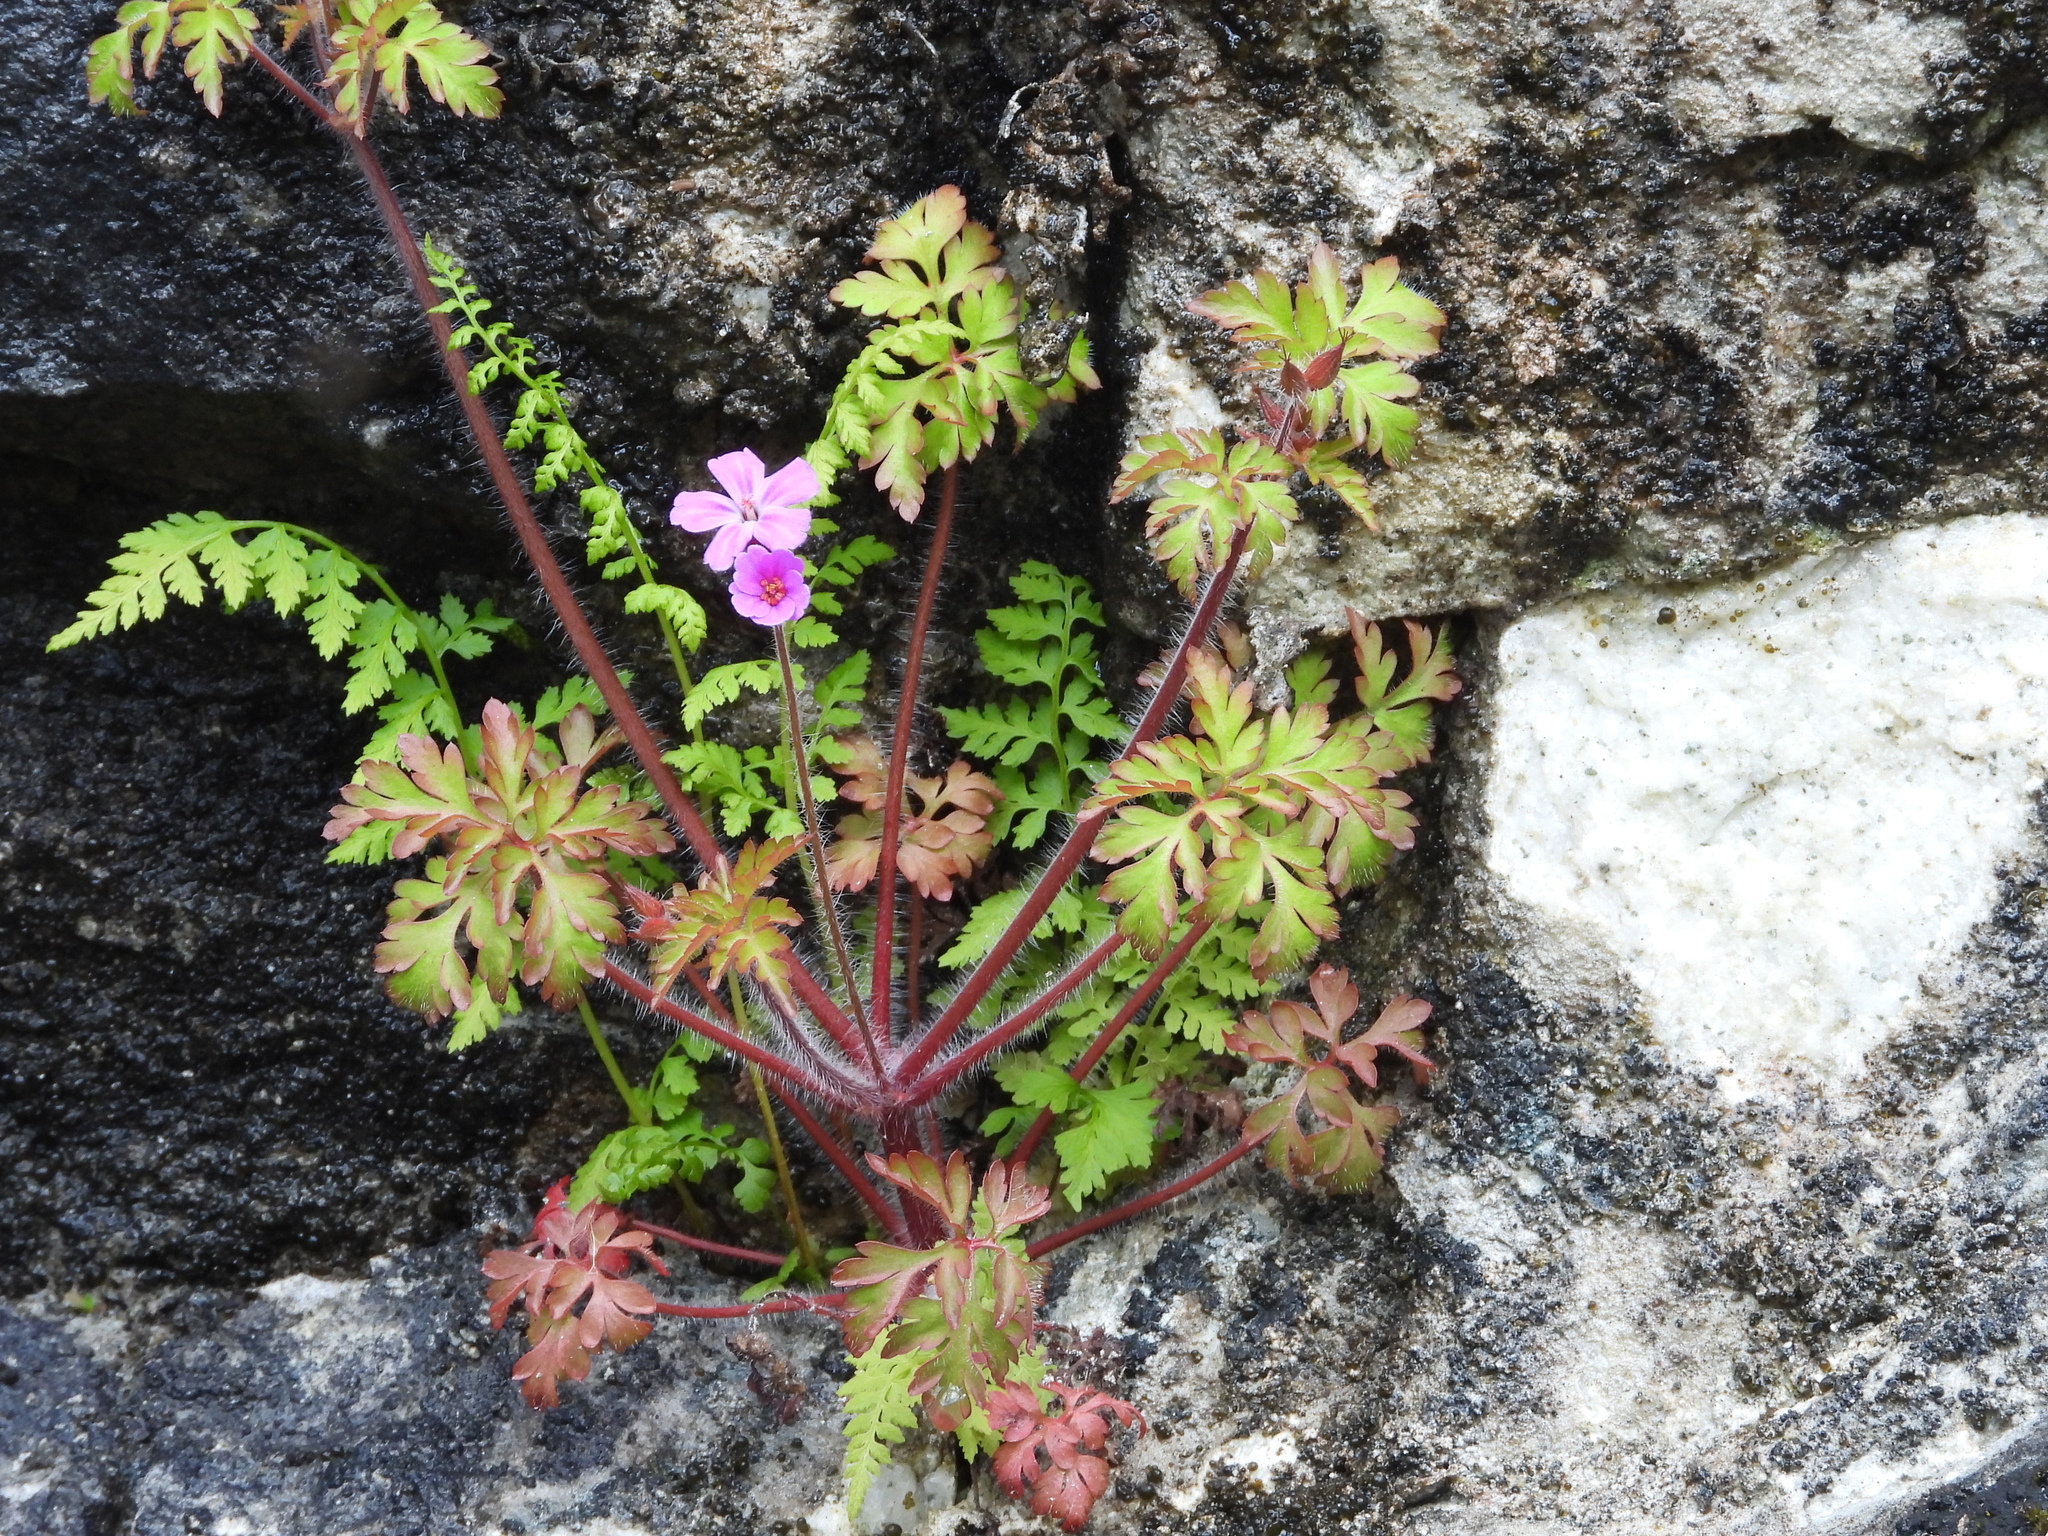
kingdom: Plantae
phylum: Tracheophyta
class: Magnoliopsida
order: Geraniales
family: Geraniaceae
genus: Geranium
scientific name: Geranium robertianum
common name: Herb-robert
